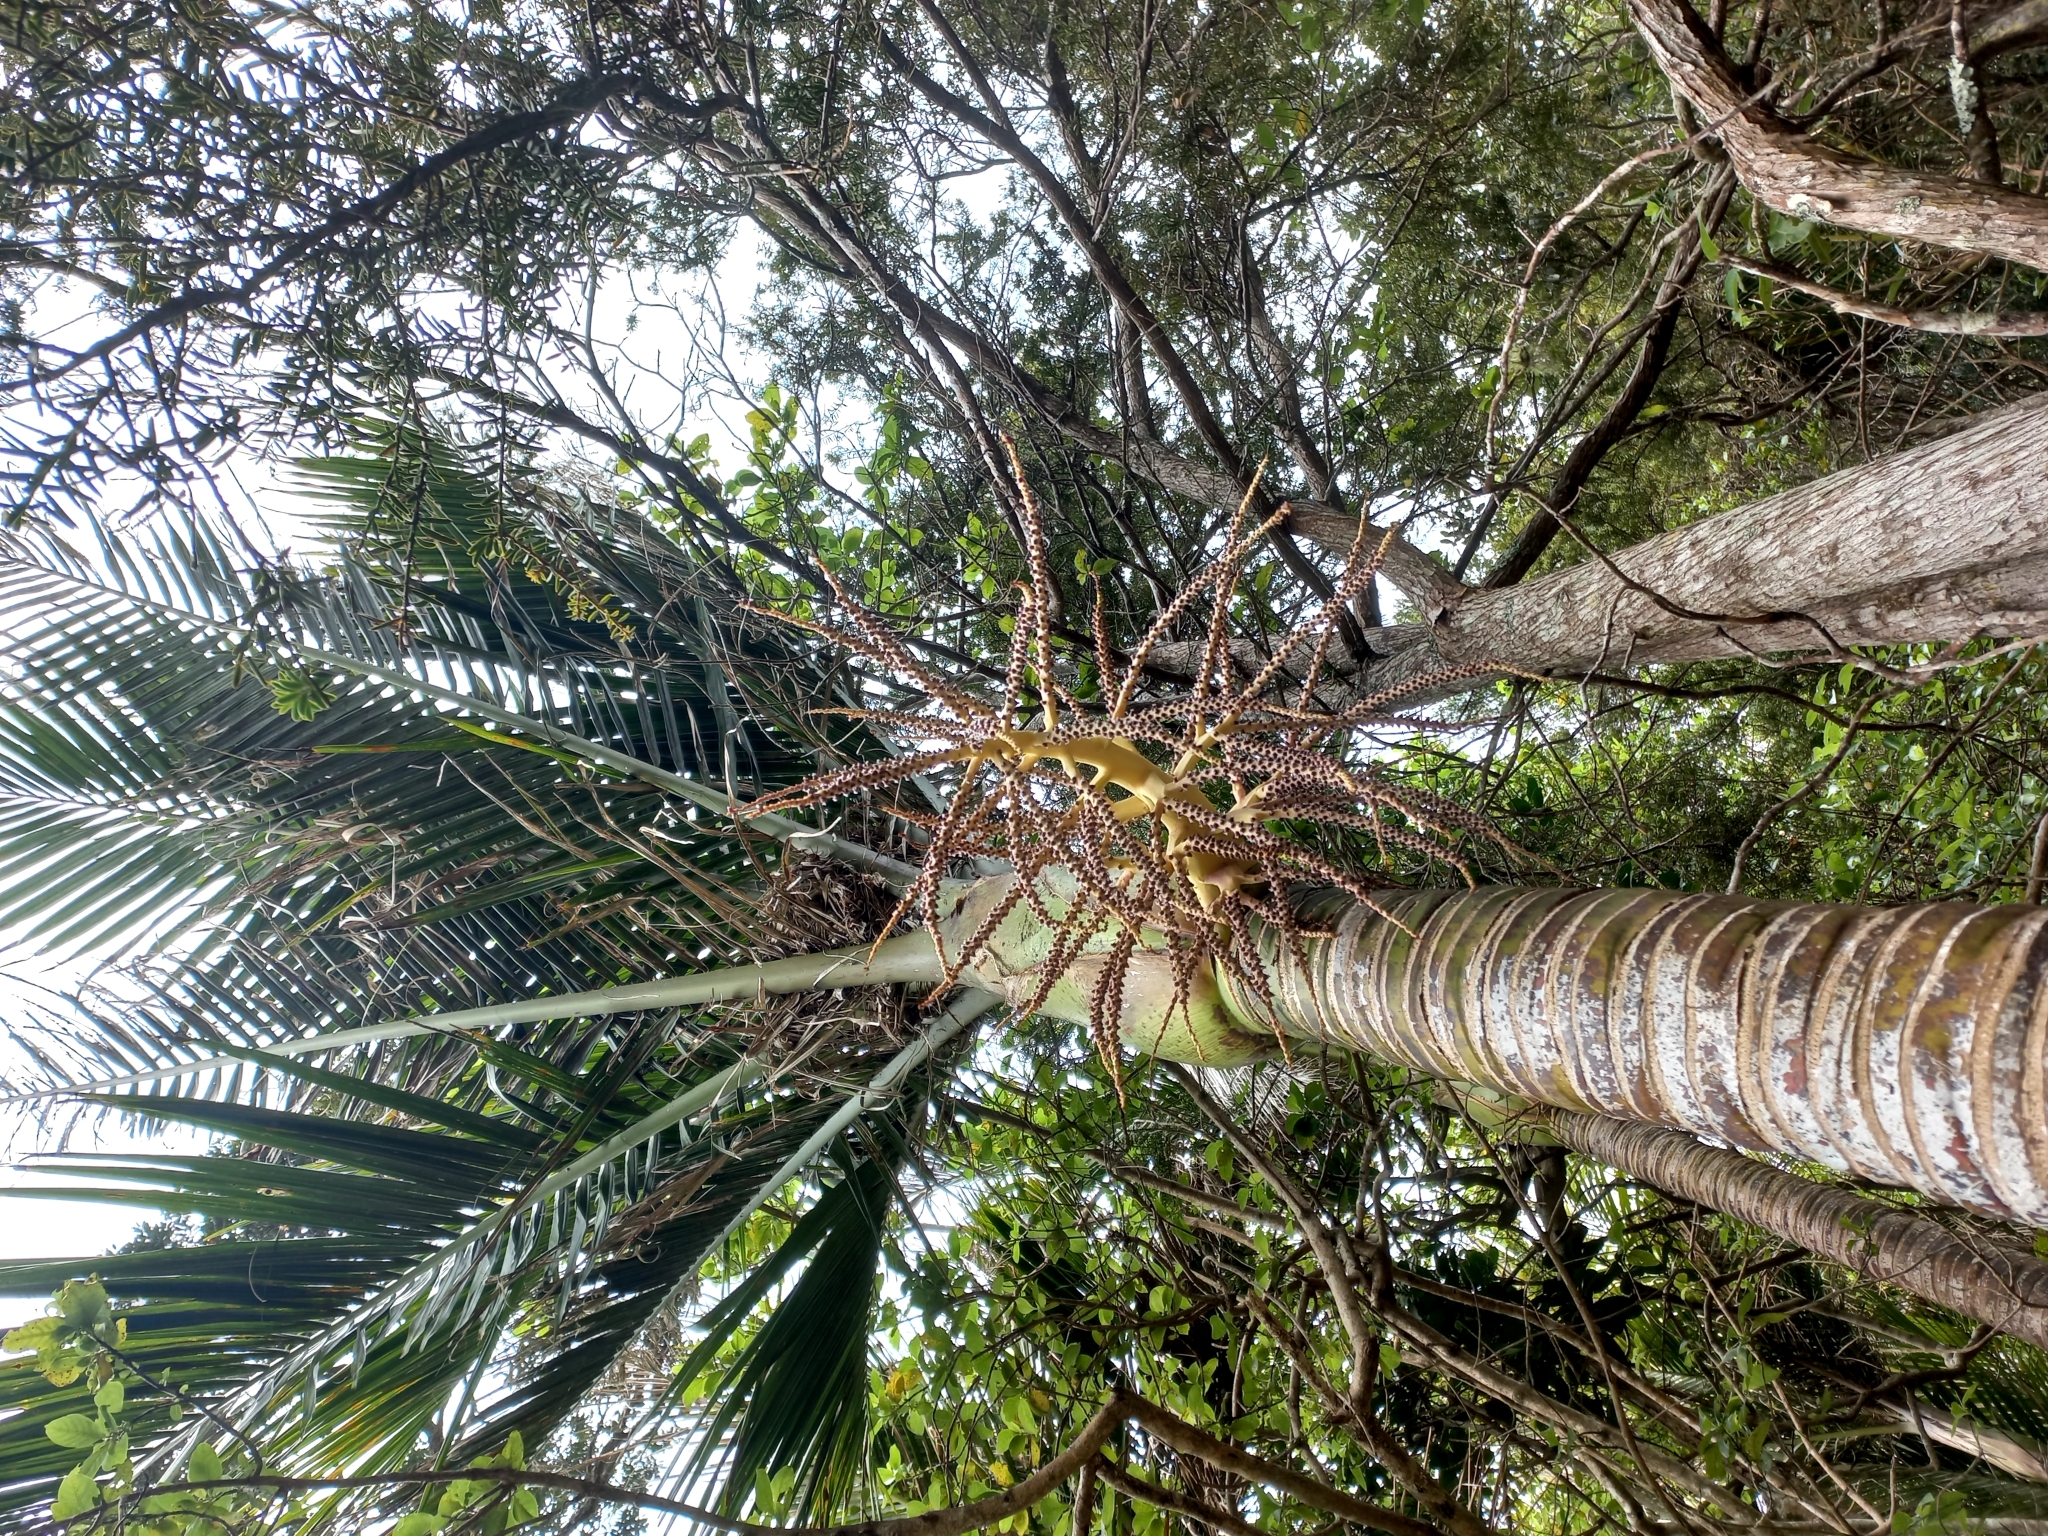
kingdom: Plantae
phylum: Tracheophyta
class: Liliopsida
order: Arecales
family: Arecaceae
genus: Rhopalostylis
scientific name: Rhopalostylis sapida
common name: Feather-duster palm
